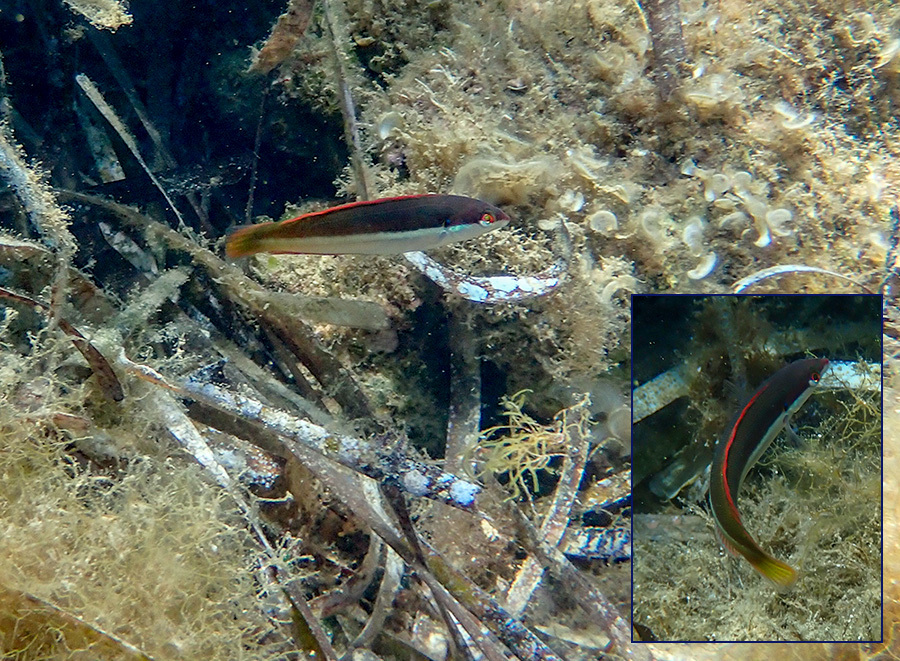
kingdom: Animalia
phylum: Chordata
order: Perciformes
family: Labridae
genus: Coris
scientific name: Coris julis
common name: Rainbow wrasse
